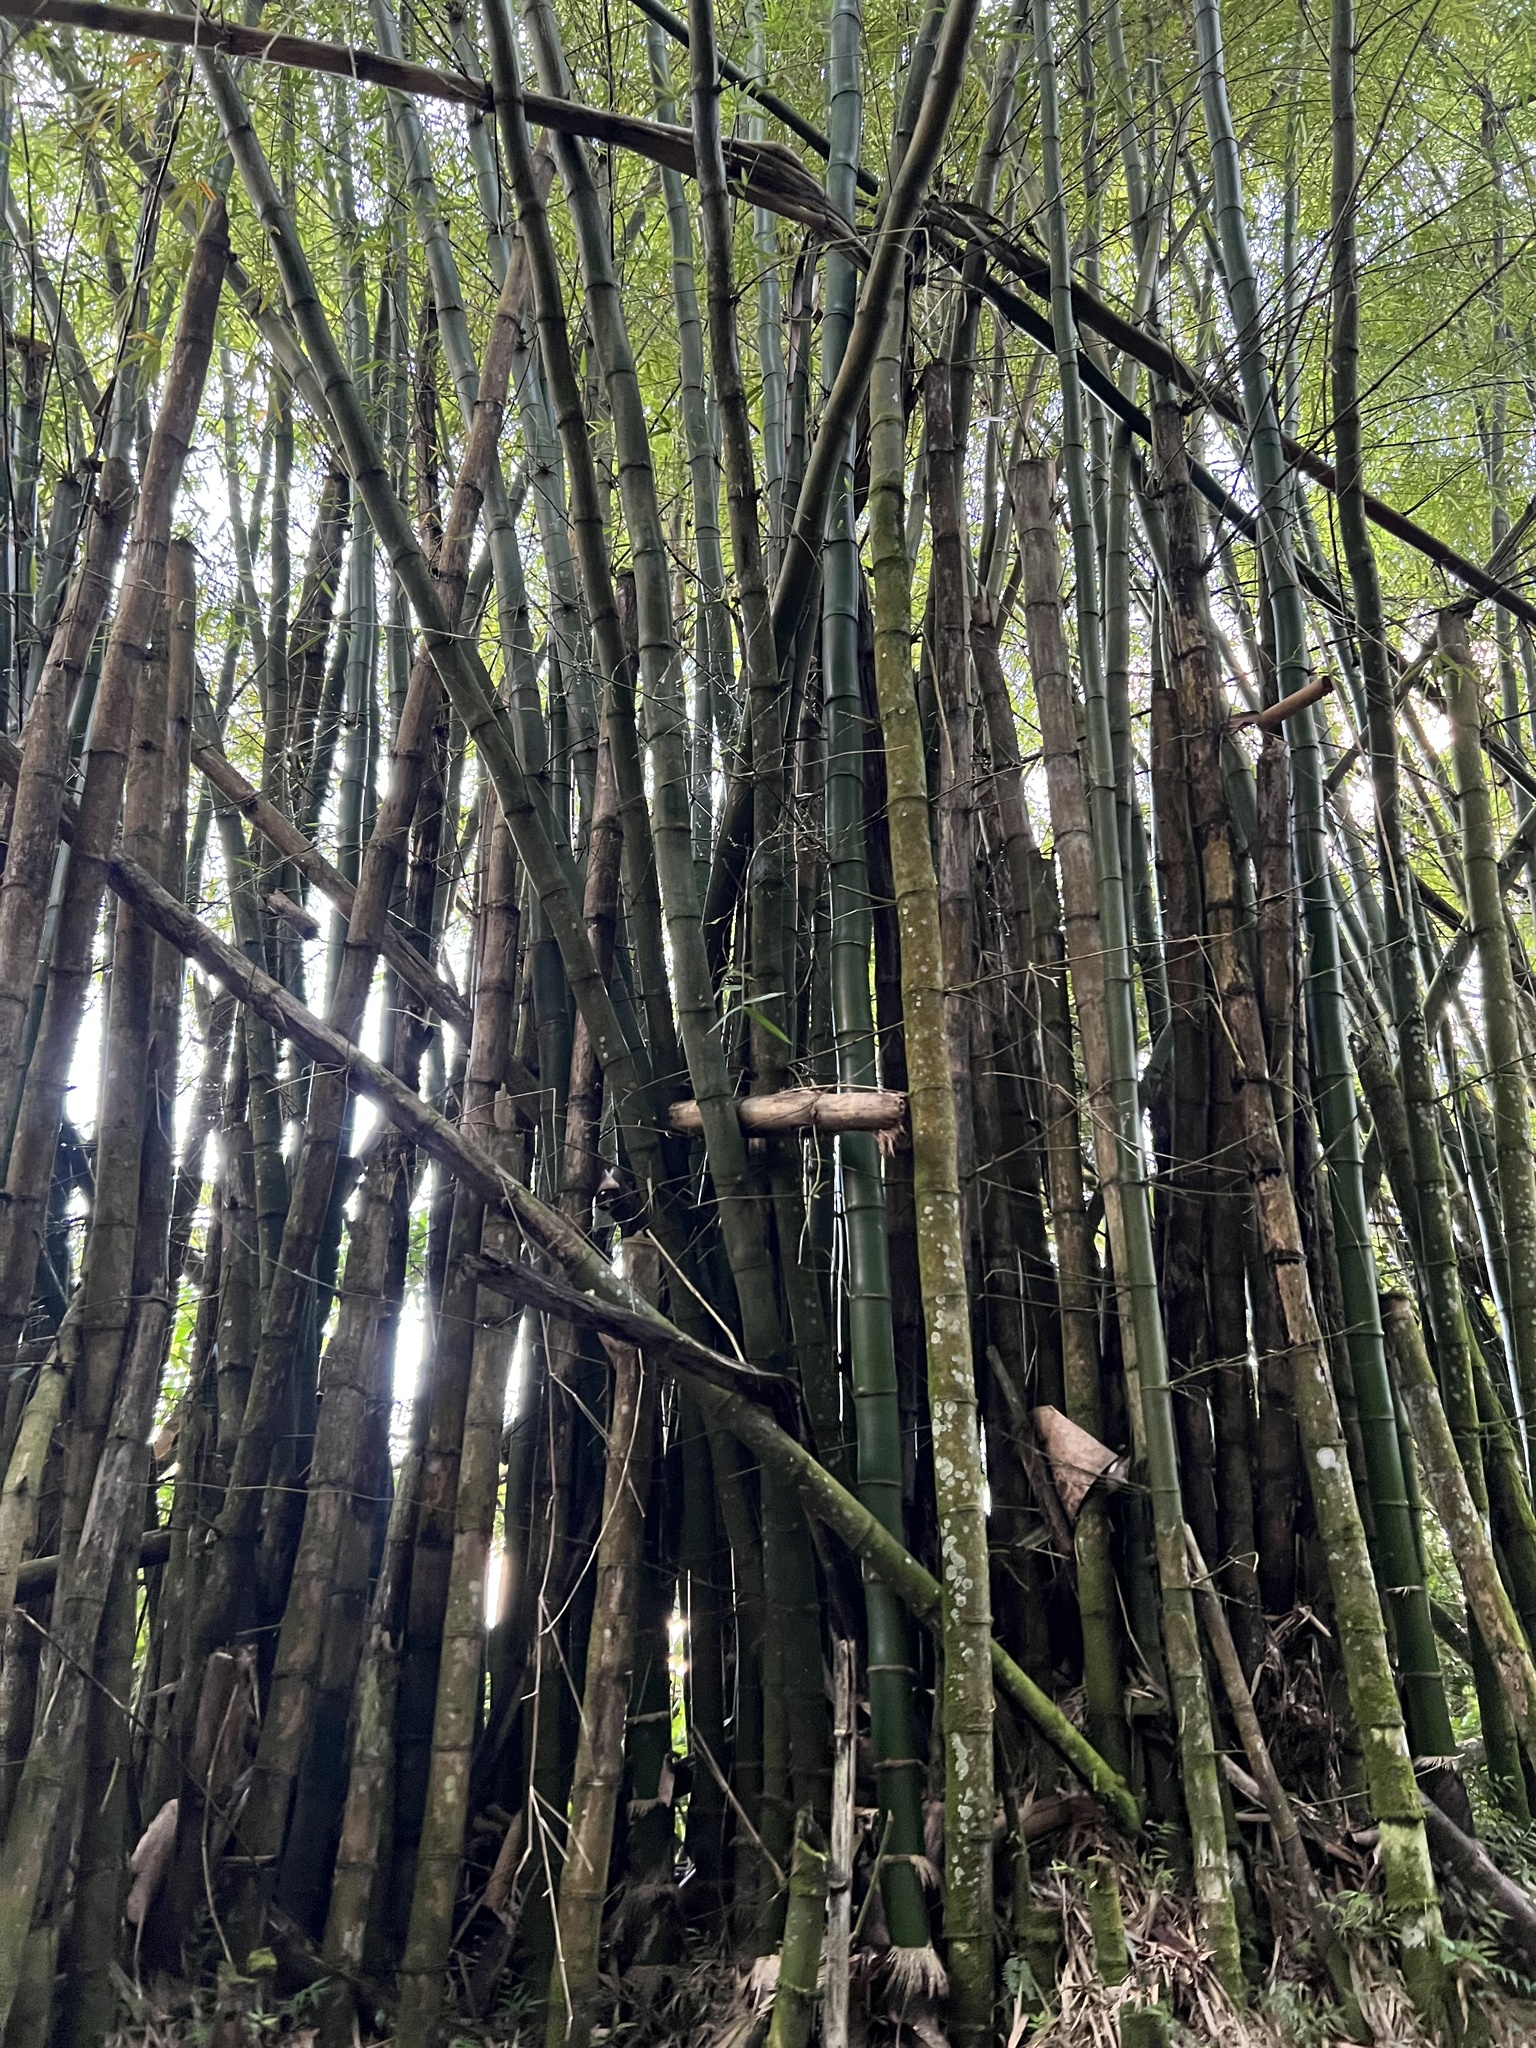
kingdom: Plantae
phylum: Tracheophyta
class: Liliopsida
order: Poales
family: Poaceae
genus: Bambusa
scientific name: Bambusa vulgaris
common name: Common bamboo
